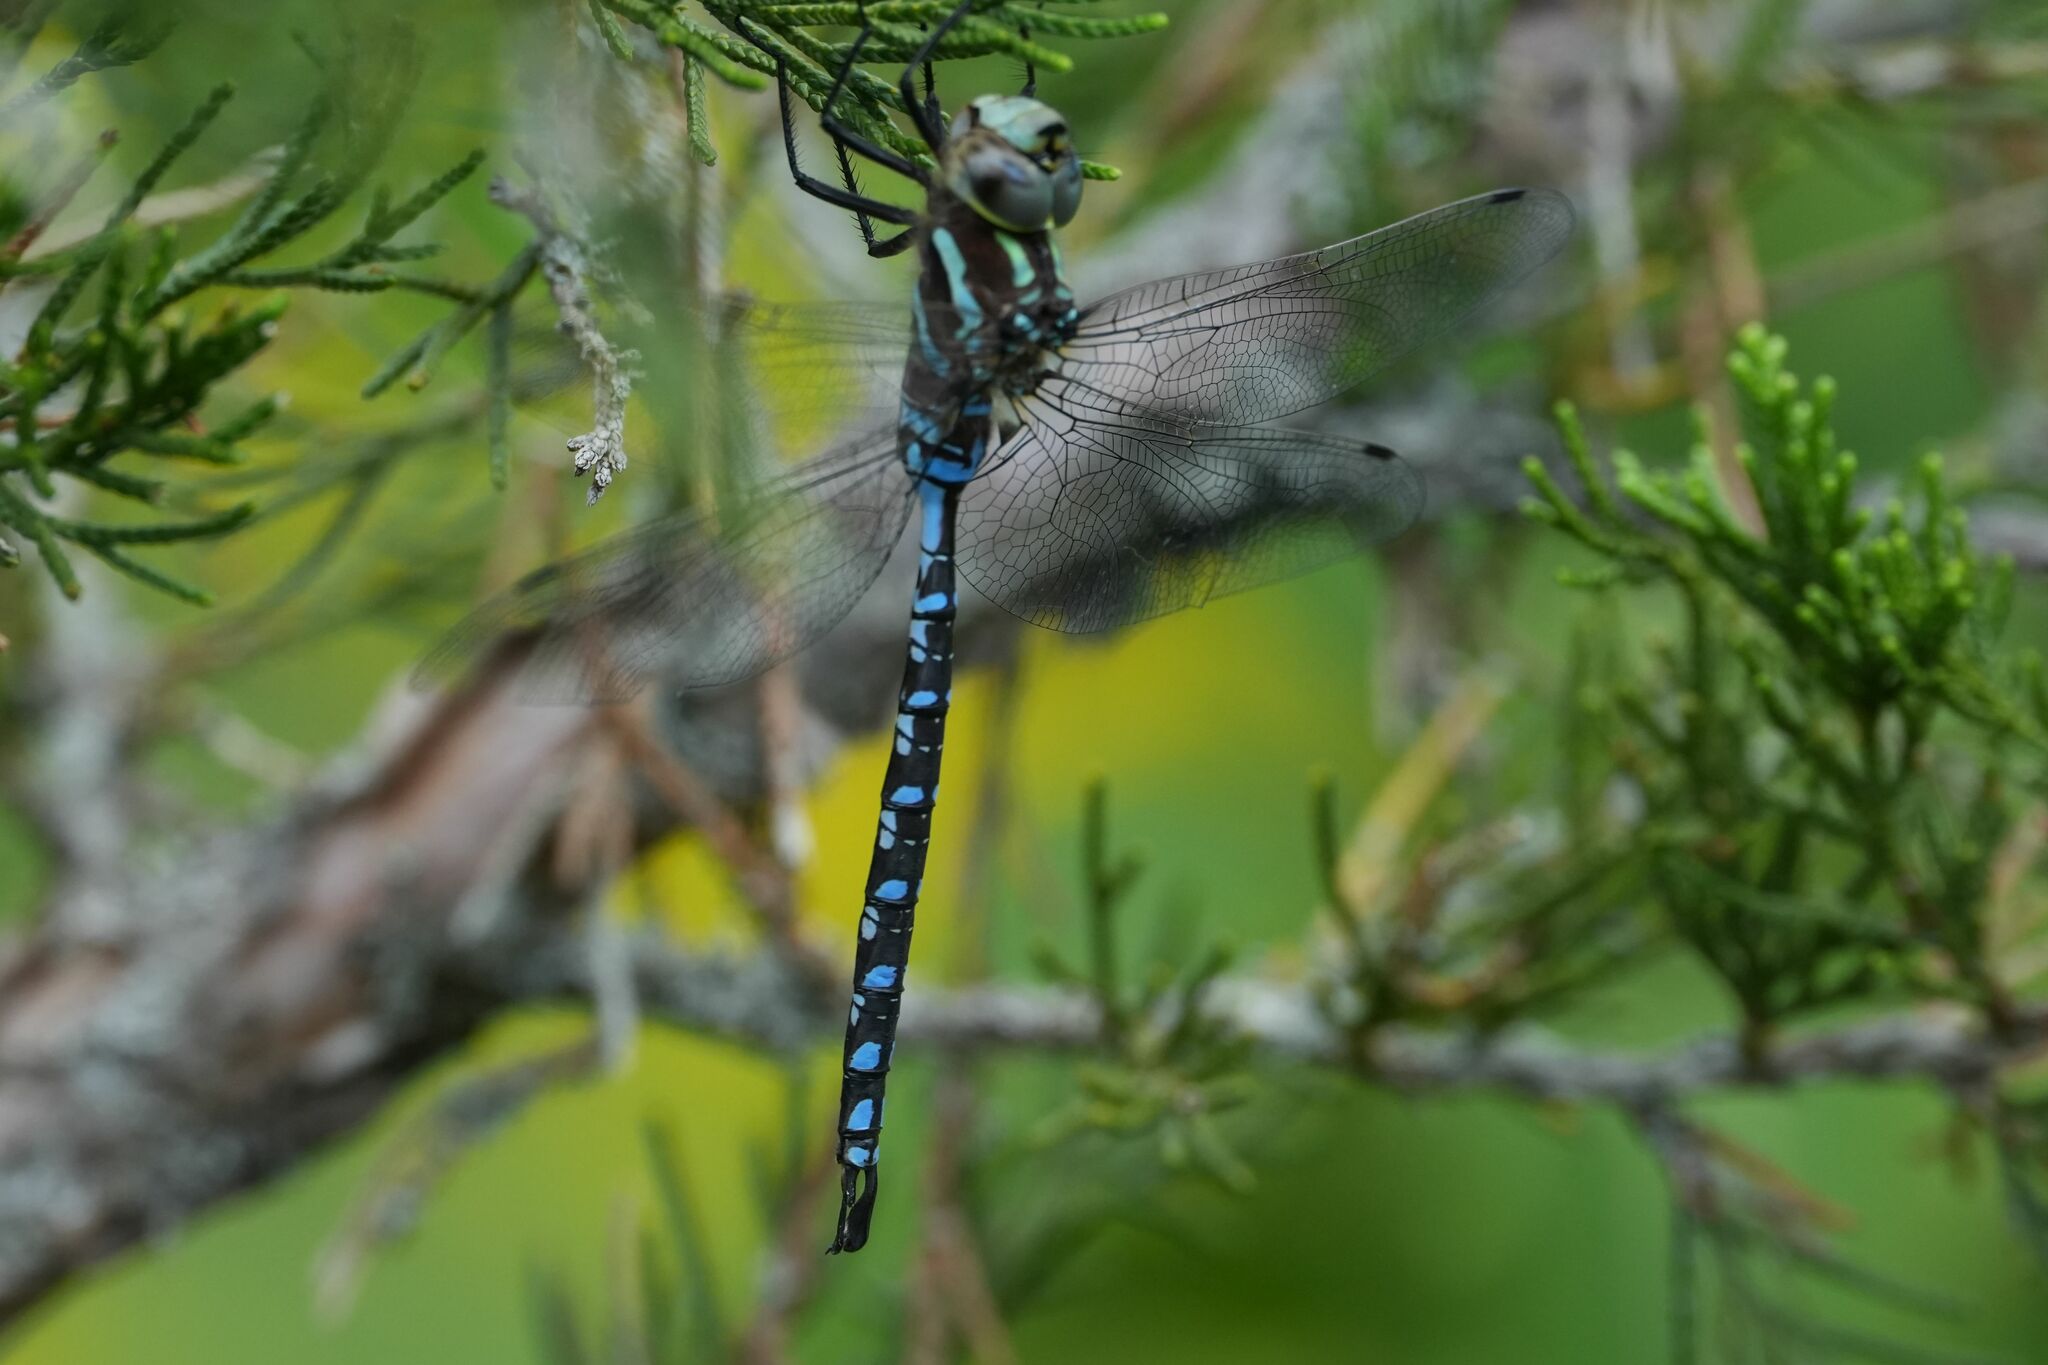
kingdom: Animalia
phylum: Arthropoda
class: Insecta
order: Odonata
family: Aeshnidae
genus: Aeshna
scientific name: Aeshna constricta
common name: Lance-tipped darner
